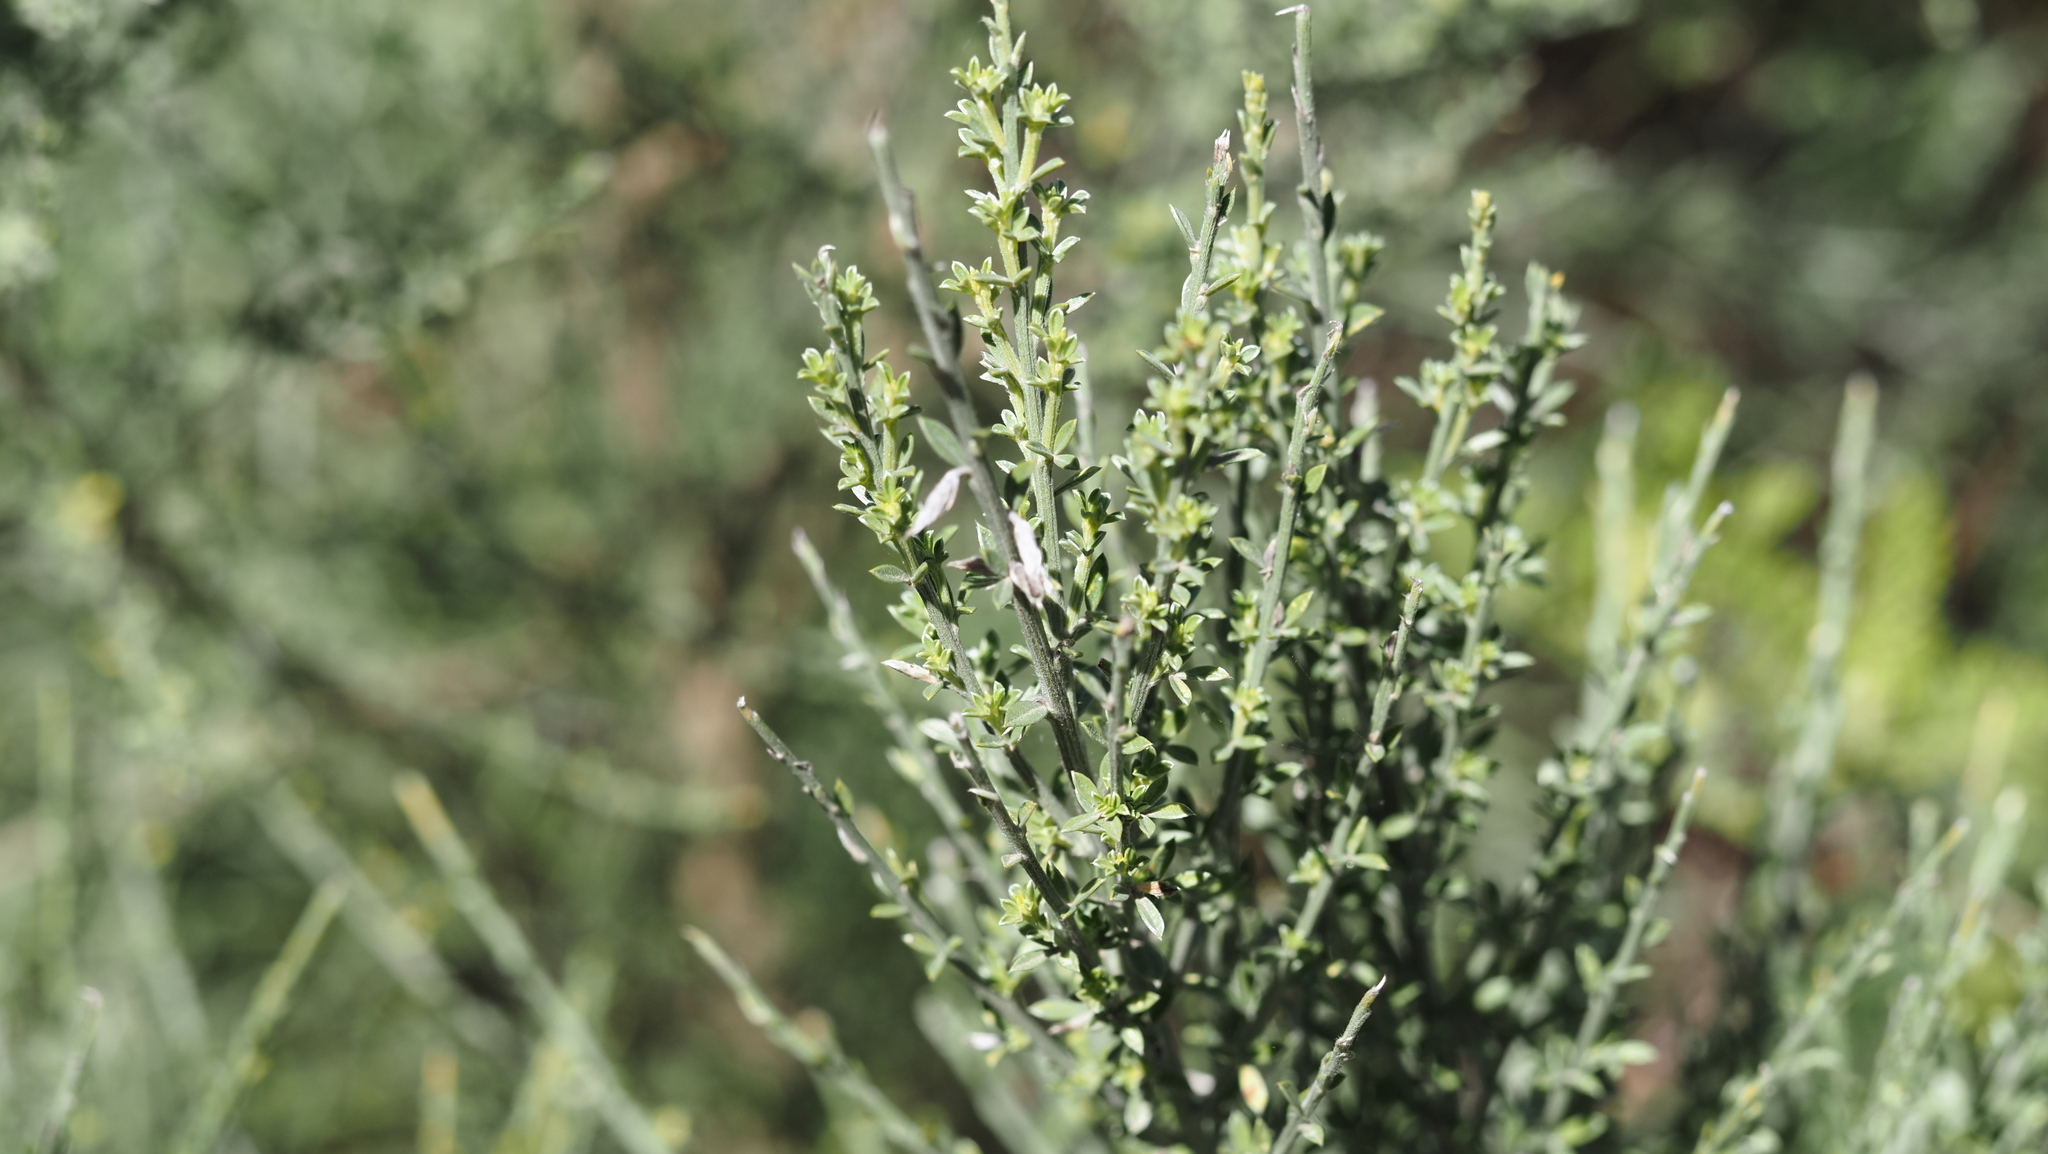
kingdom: Plantae
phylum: Tracheophyta
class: Magnoliopsida
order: Fabales
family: Fabaceae
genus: Genista
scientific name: Genista canariensis
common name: Canary broom
